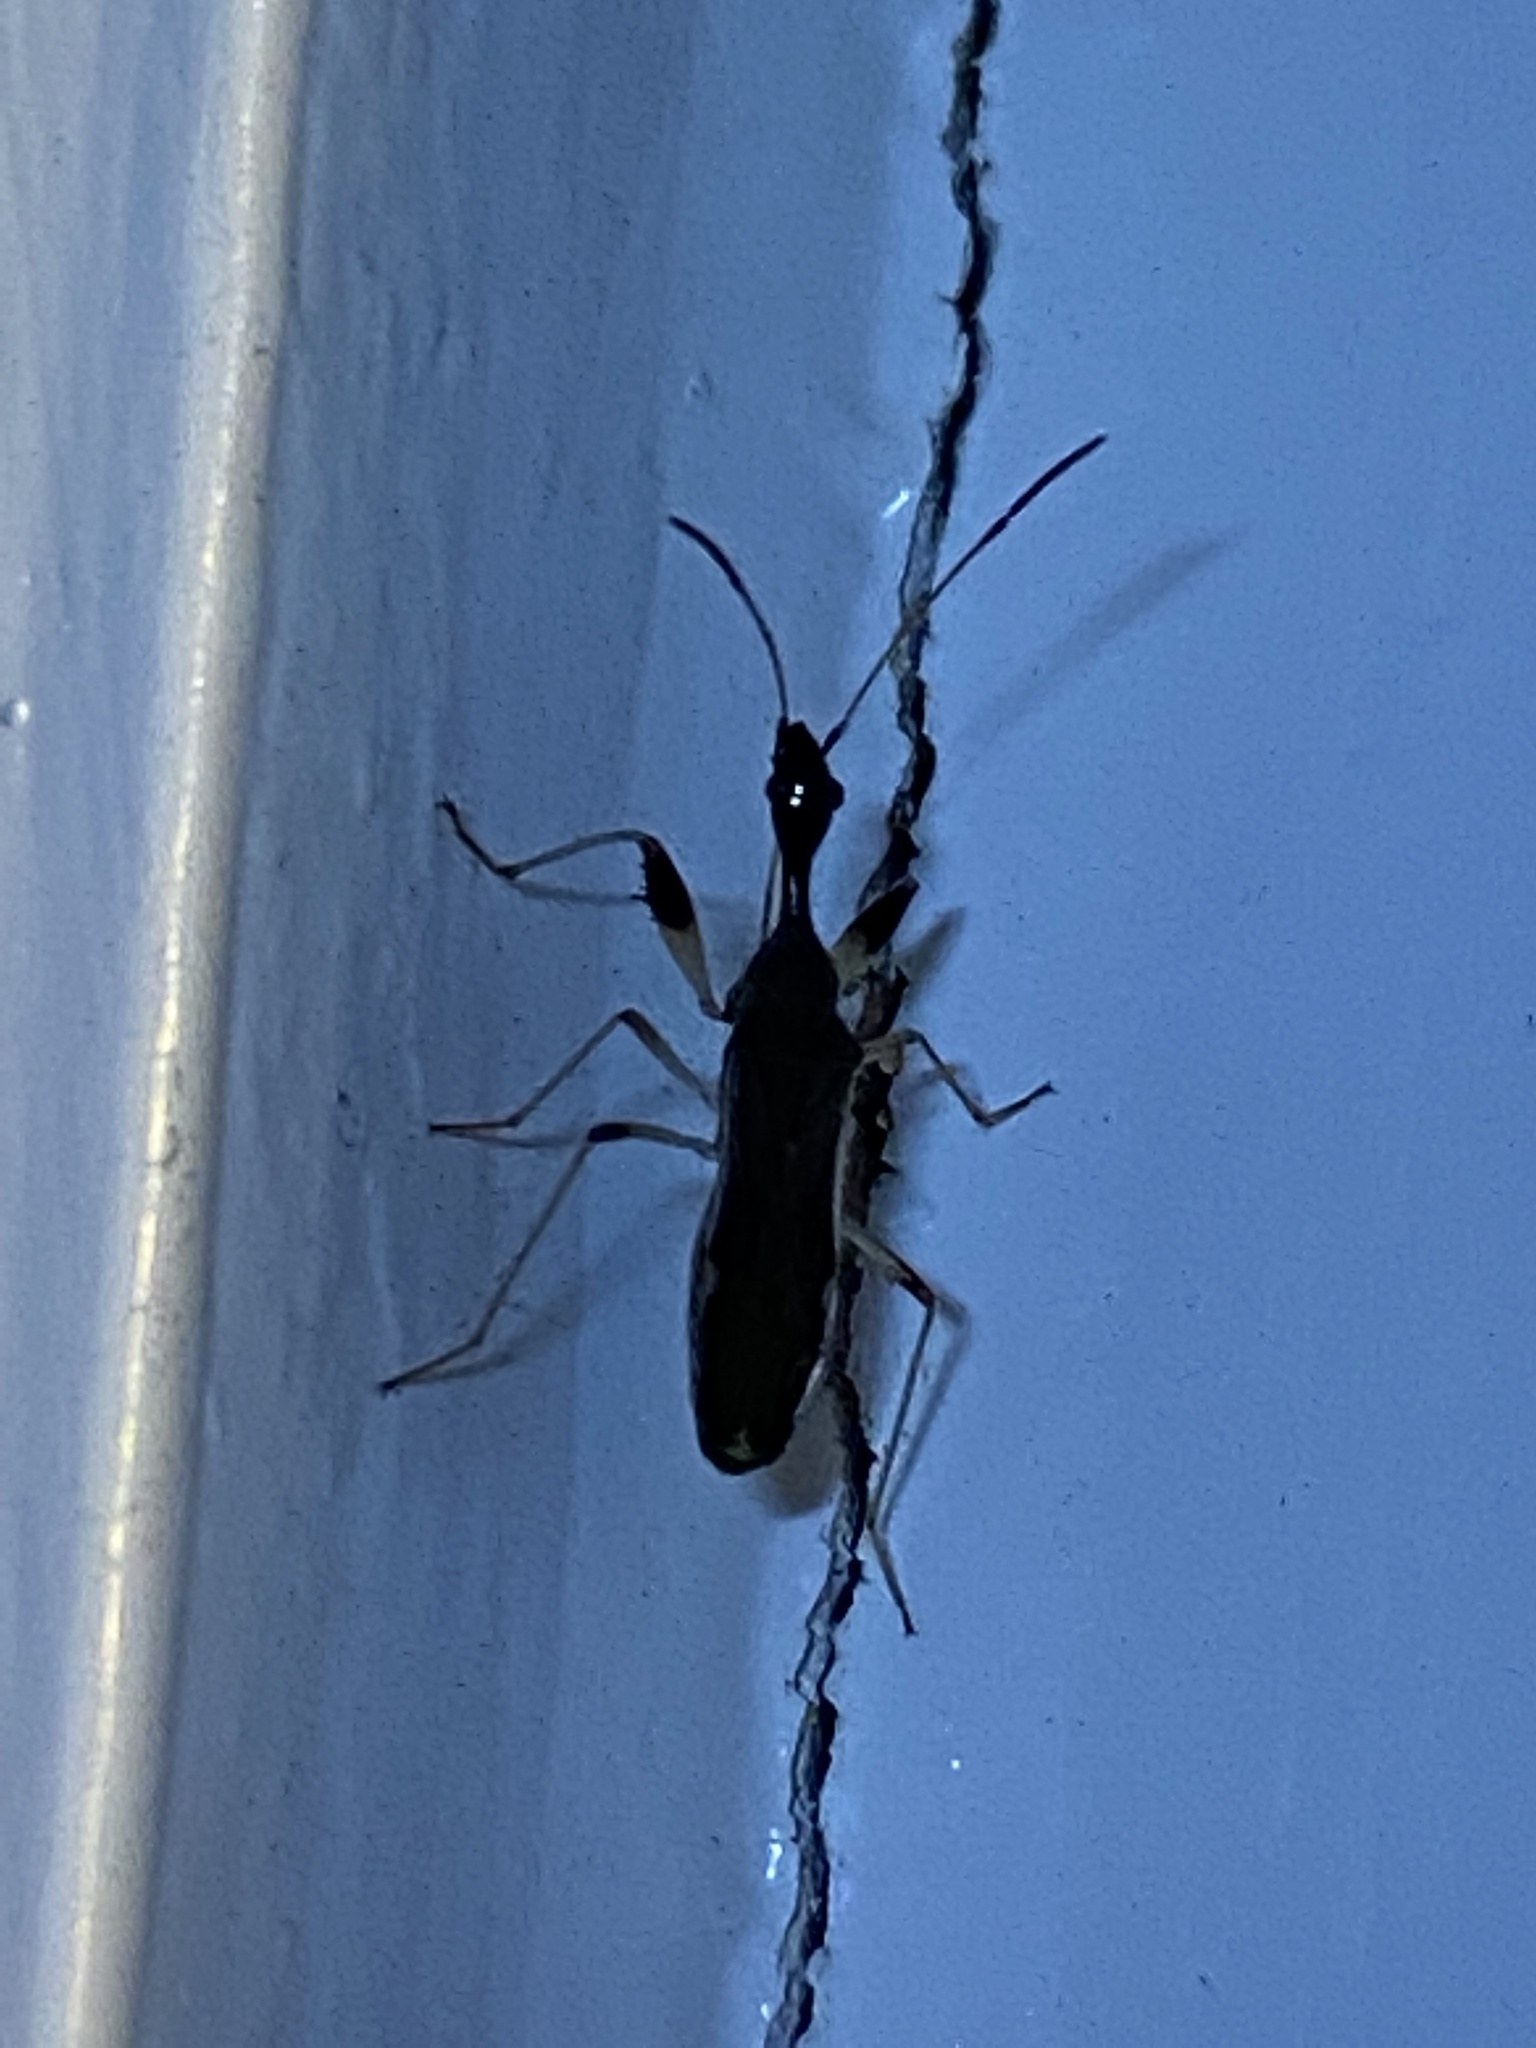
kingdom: Animalia
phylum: Arthropoda
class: Insecta
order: Hemiptera
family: Rhyparochromidae
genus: Myodocha
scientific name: Myodocha serripes
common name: Long-necked seed bug
